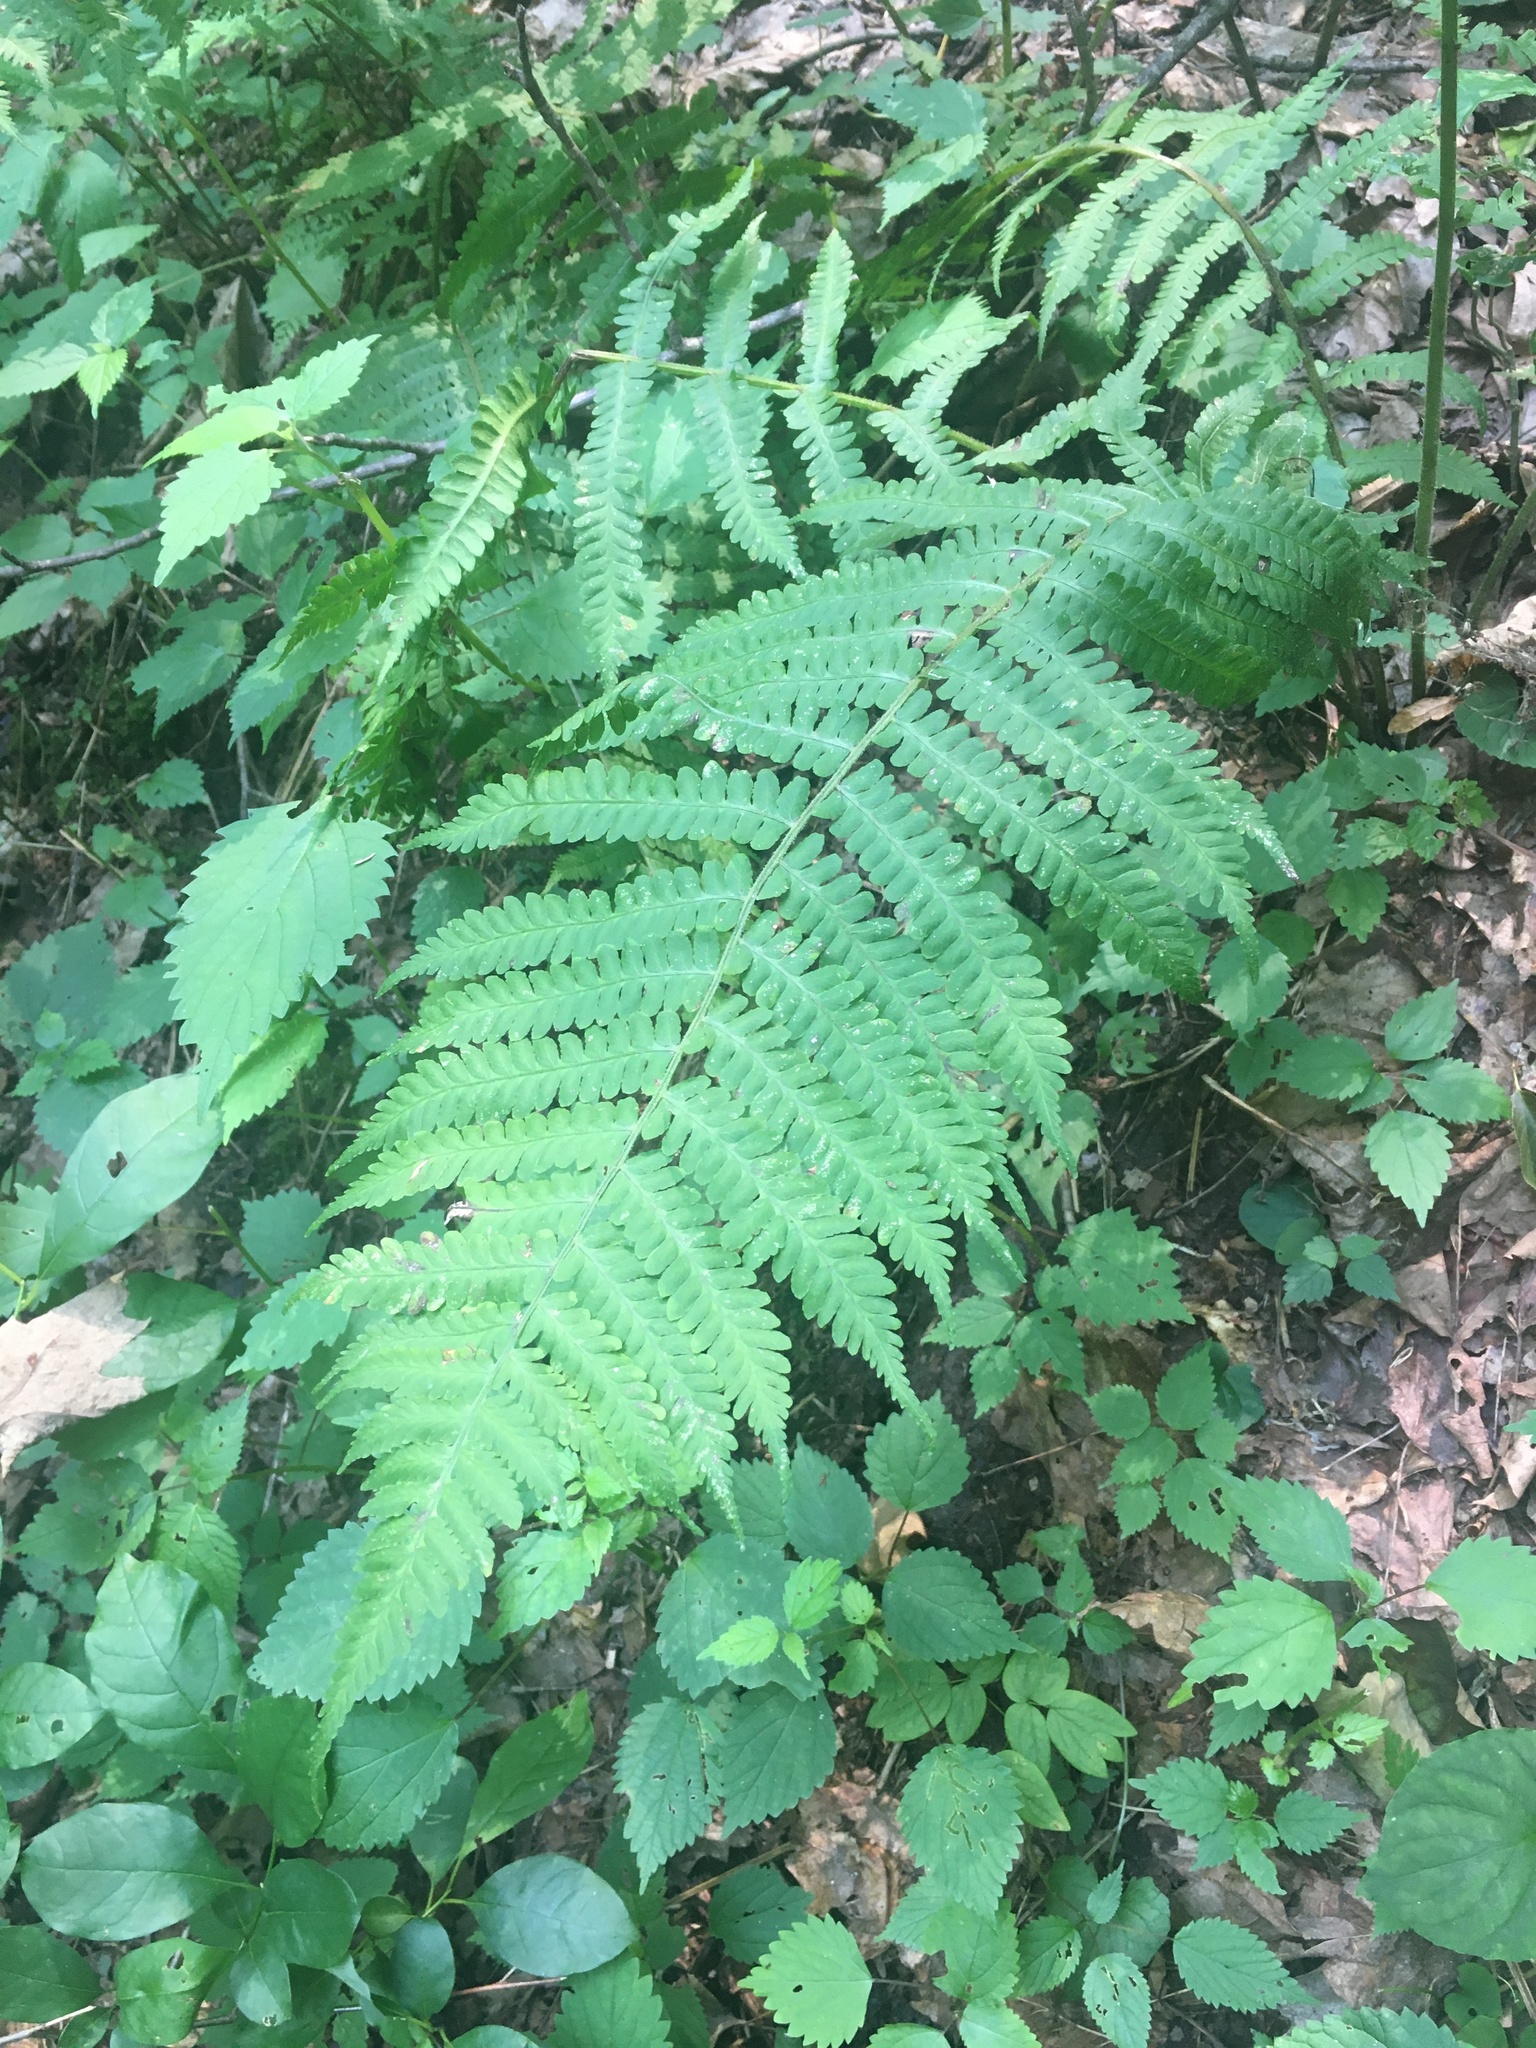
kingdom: Plantae
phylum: Tracheophyta
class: Polypodiopsida
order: Polypodiales
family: Athyriaceae
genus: Deparia
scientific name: Deparia acrostichoides
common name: Silver false spleenwort
